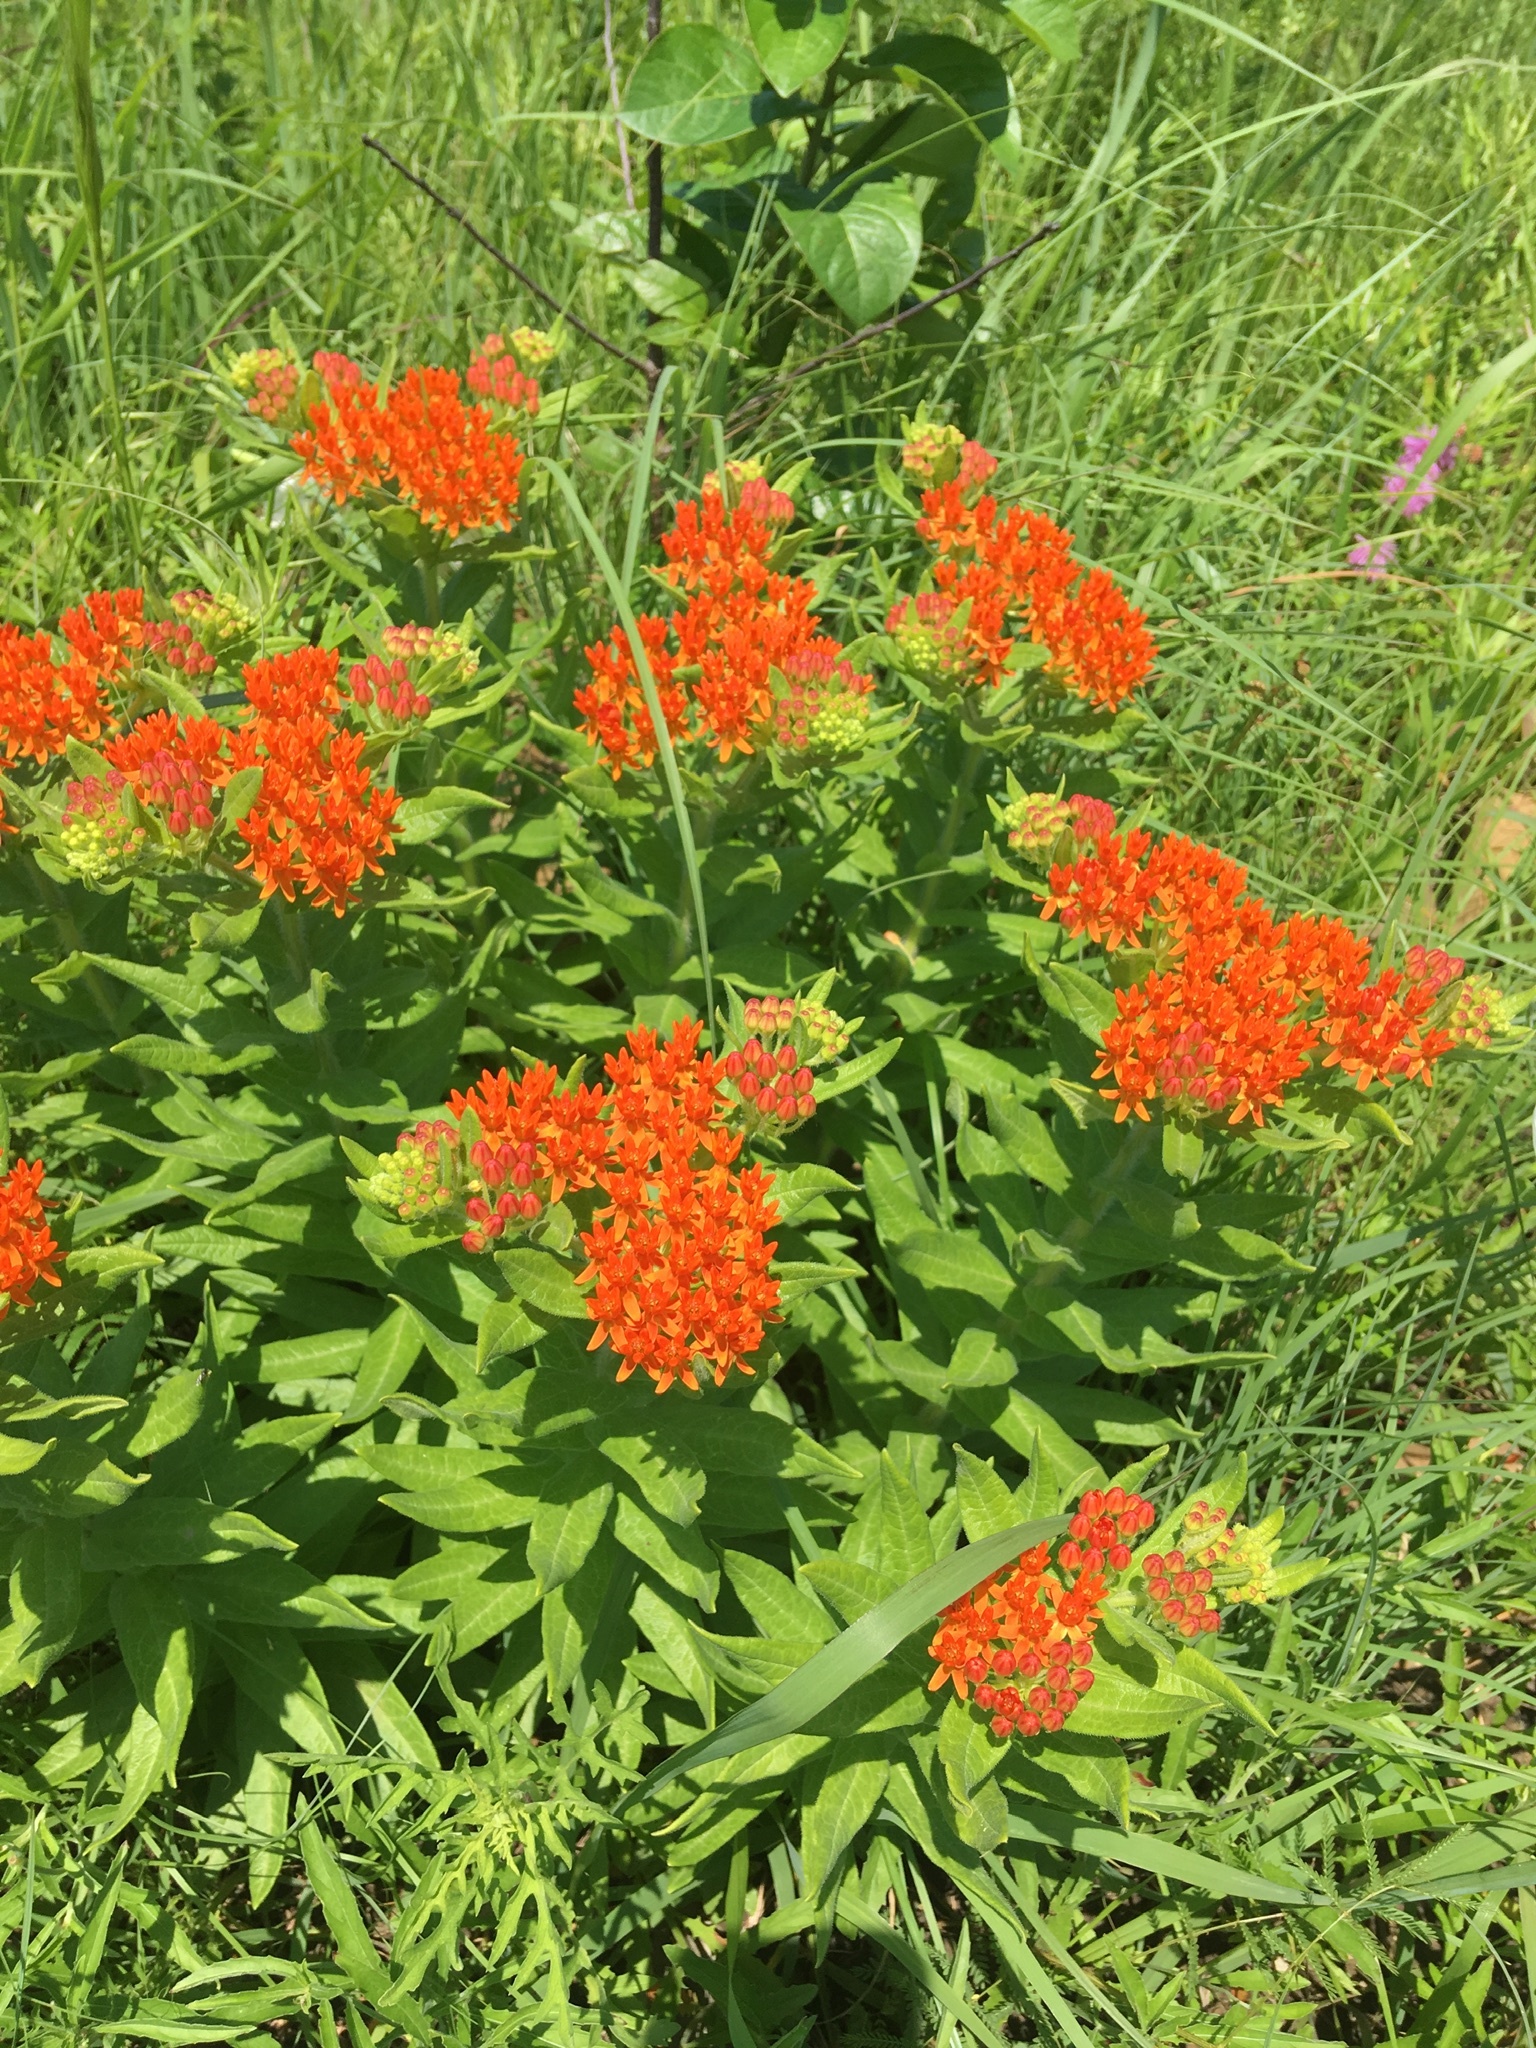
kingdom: Plantae
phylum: Tracheophyta
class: Magnoliopsida
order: Gentianales
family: Apocynaceae
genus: Asclepias
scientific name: Asclepias tuberosa
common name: Butterfly milkweed
